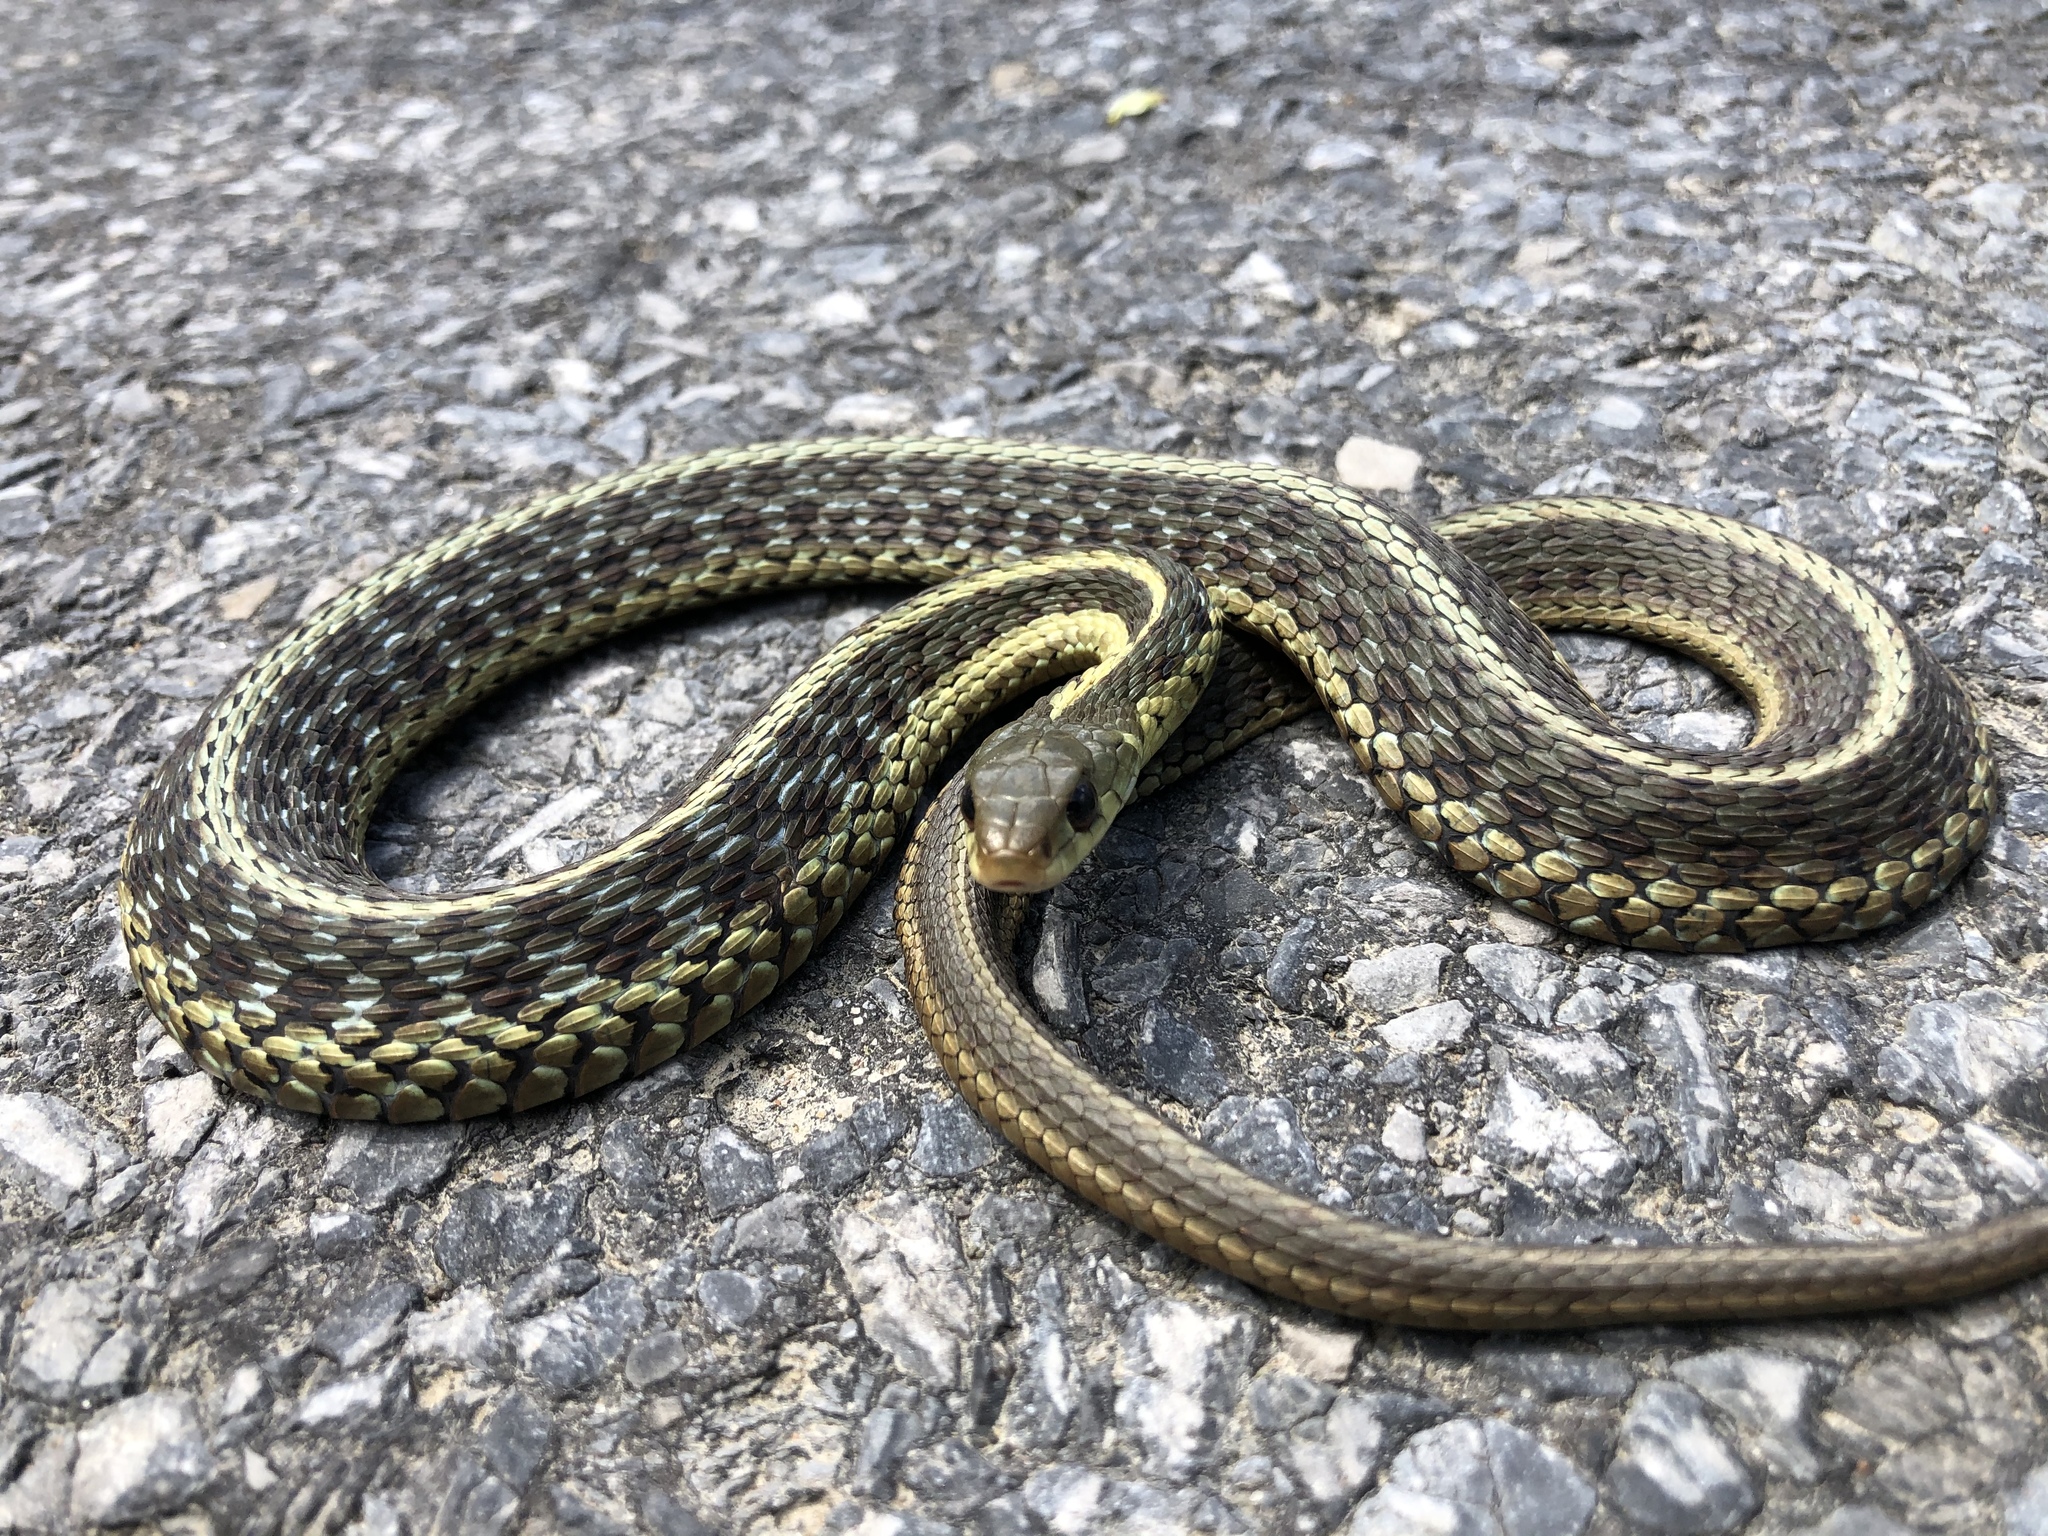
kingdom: Animalia
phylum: Chordata
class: Squamata
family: Colubridae
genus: Thamnophis
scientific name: Thamnophis sirtalis
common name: Common garter snake
